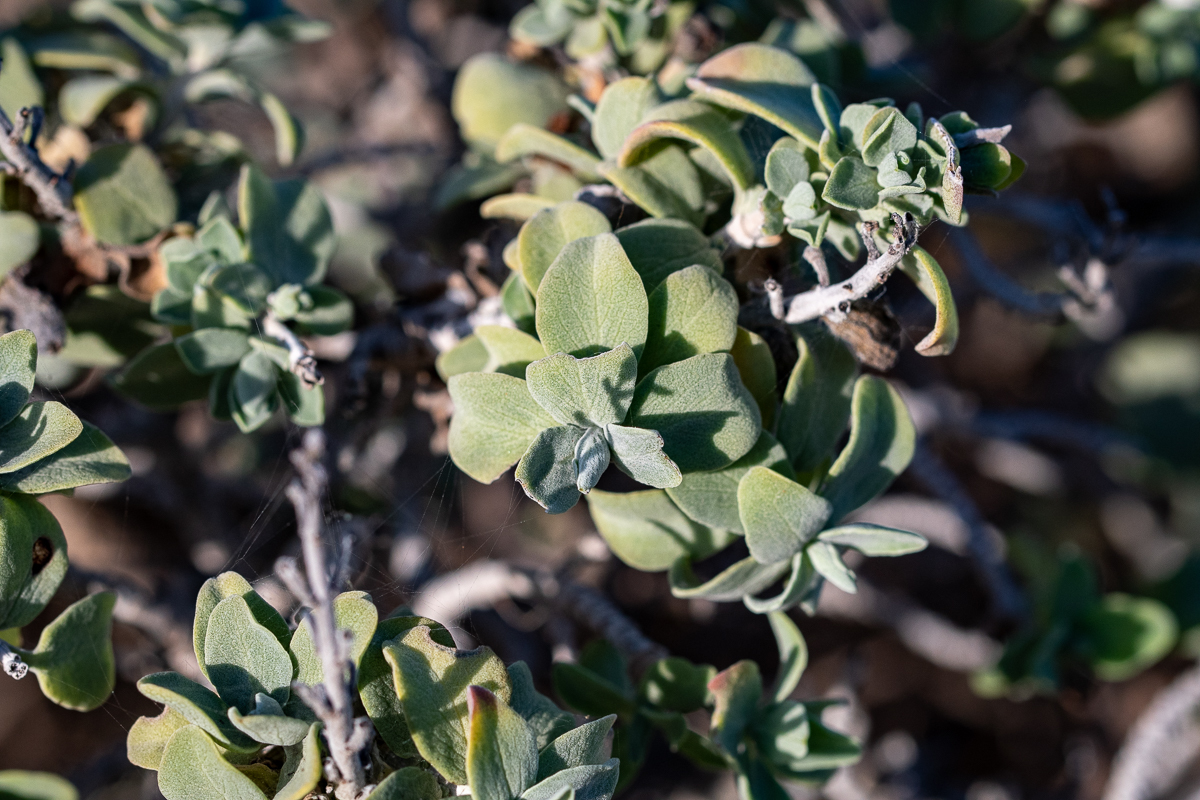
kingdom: Plantae
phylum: Tracheophyta
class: Magnoliopsida
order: Lamiales
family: Lamiaceae
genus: Salvia
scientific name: Salvia aurea
